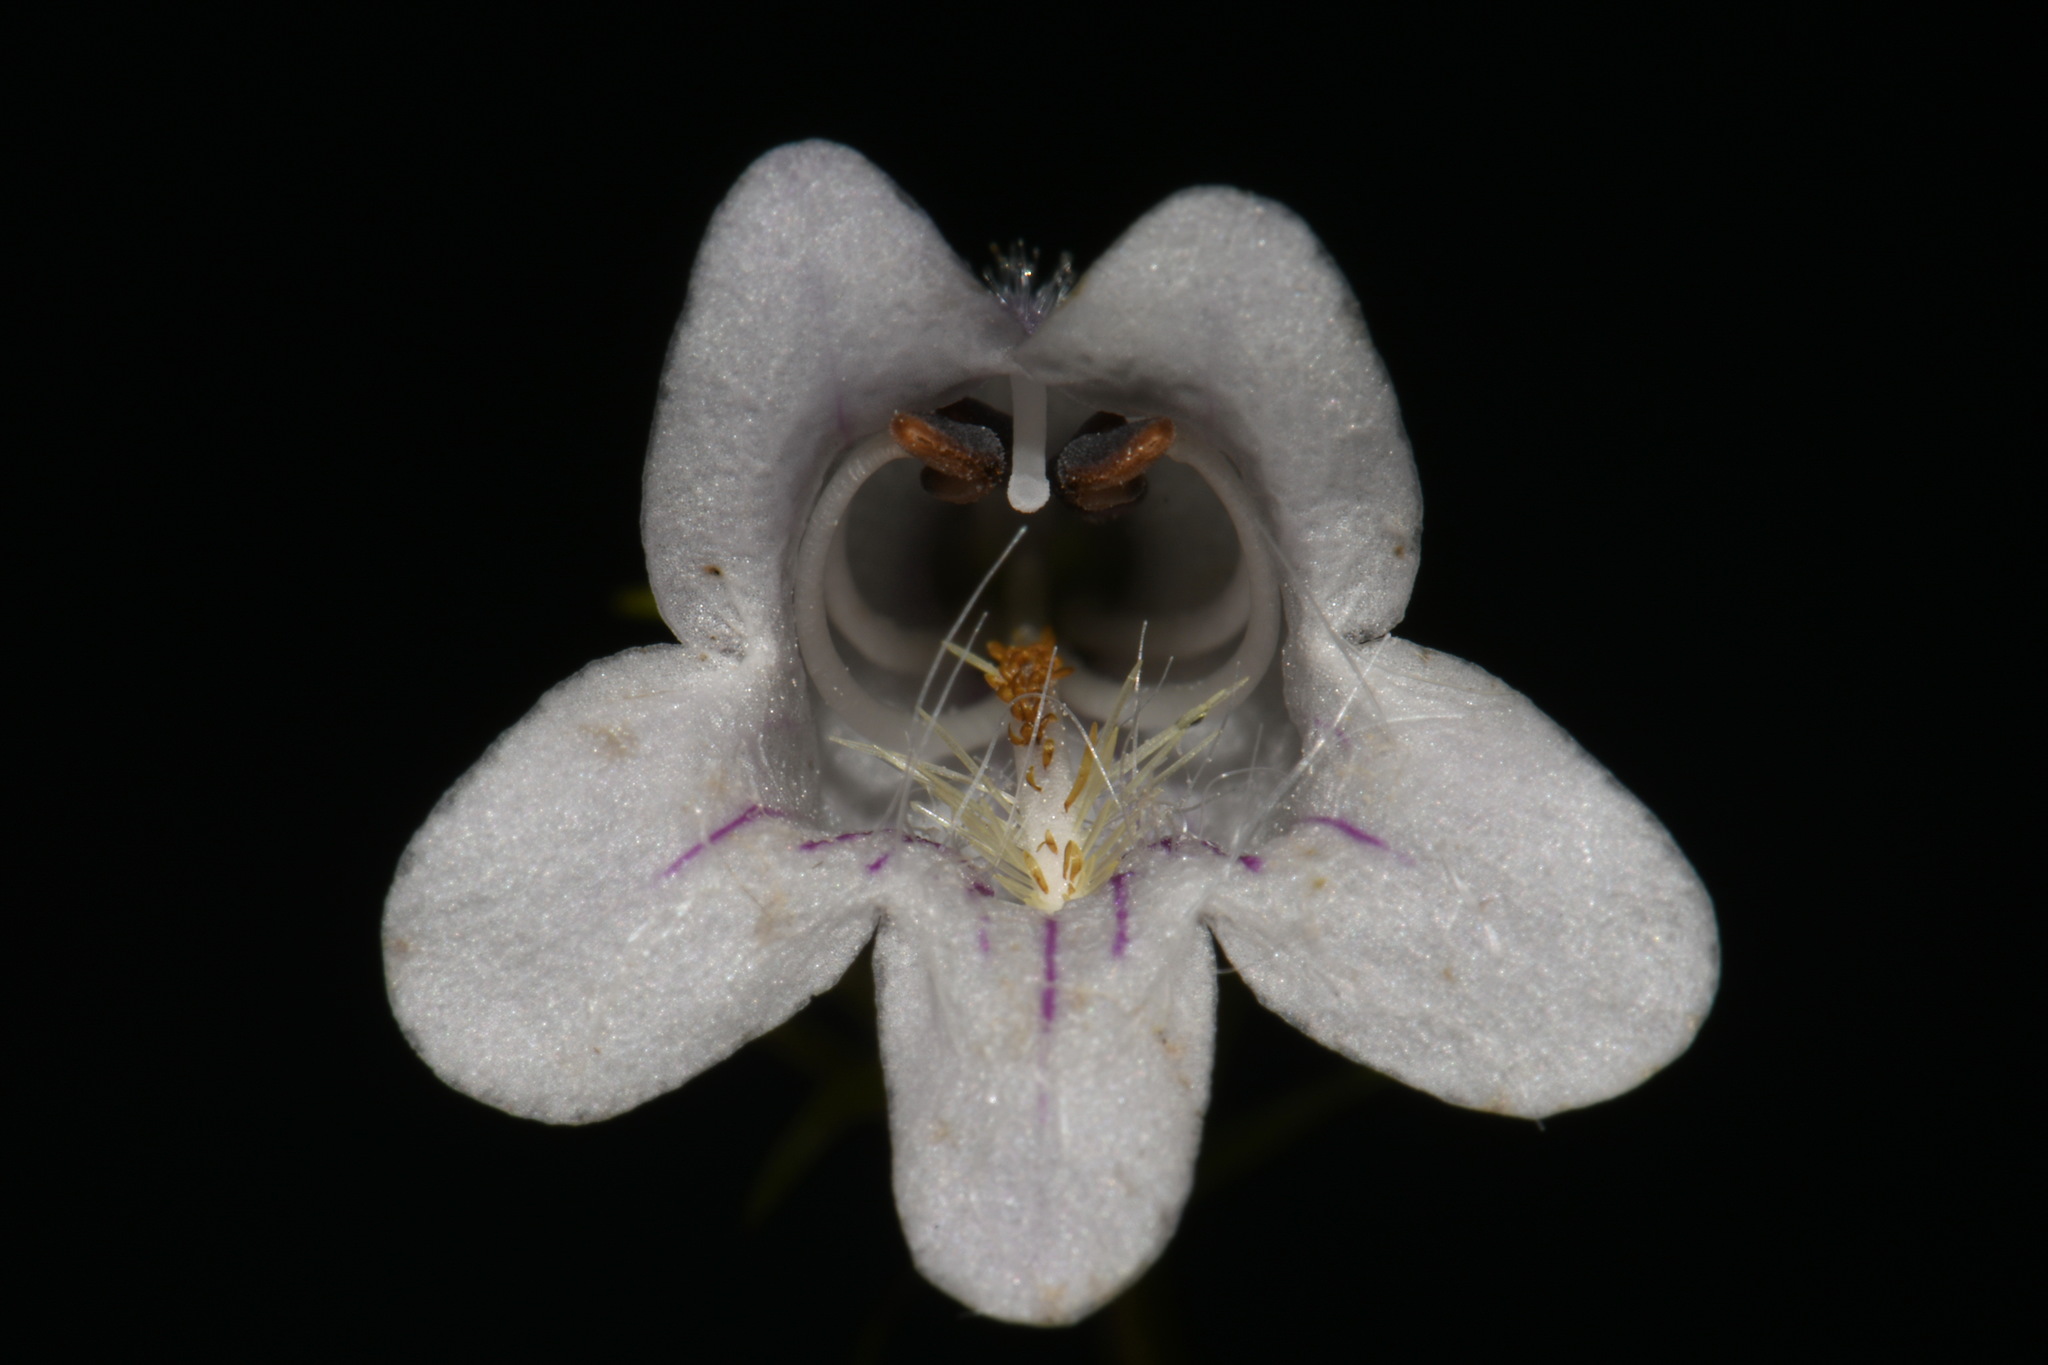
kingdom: Plantae
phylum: Tracheophyta
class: Magnoliopsida
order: Lamiales
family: Plantaginaceae
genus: Penstemon
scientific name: Penstemon digitalis
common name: Foxglove beardtongue
